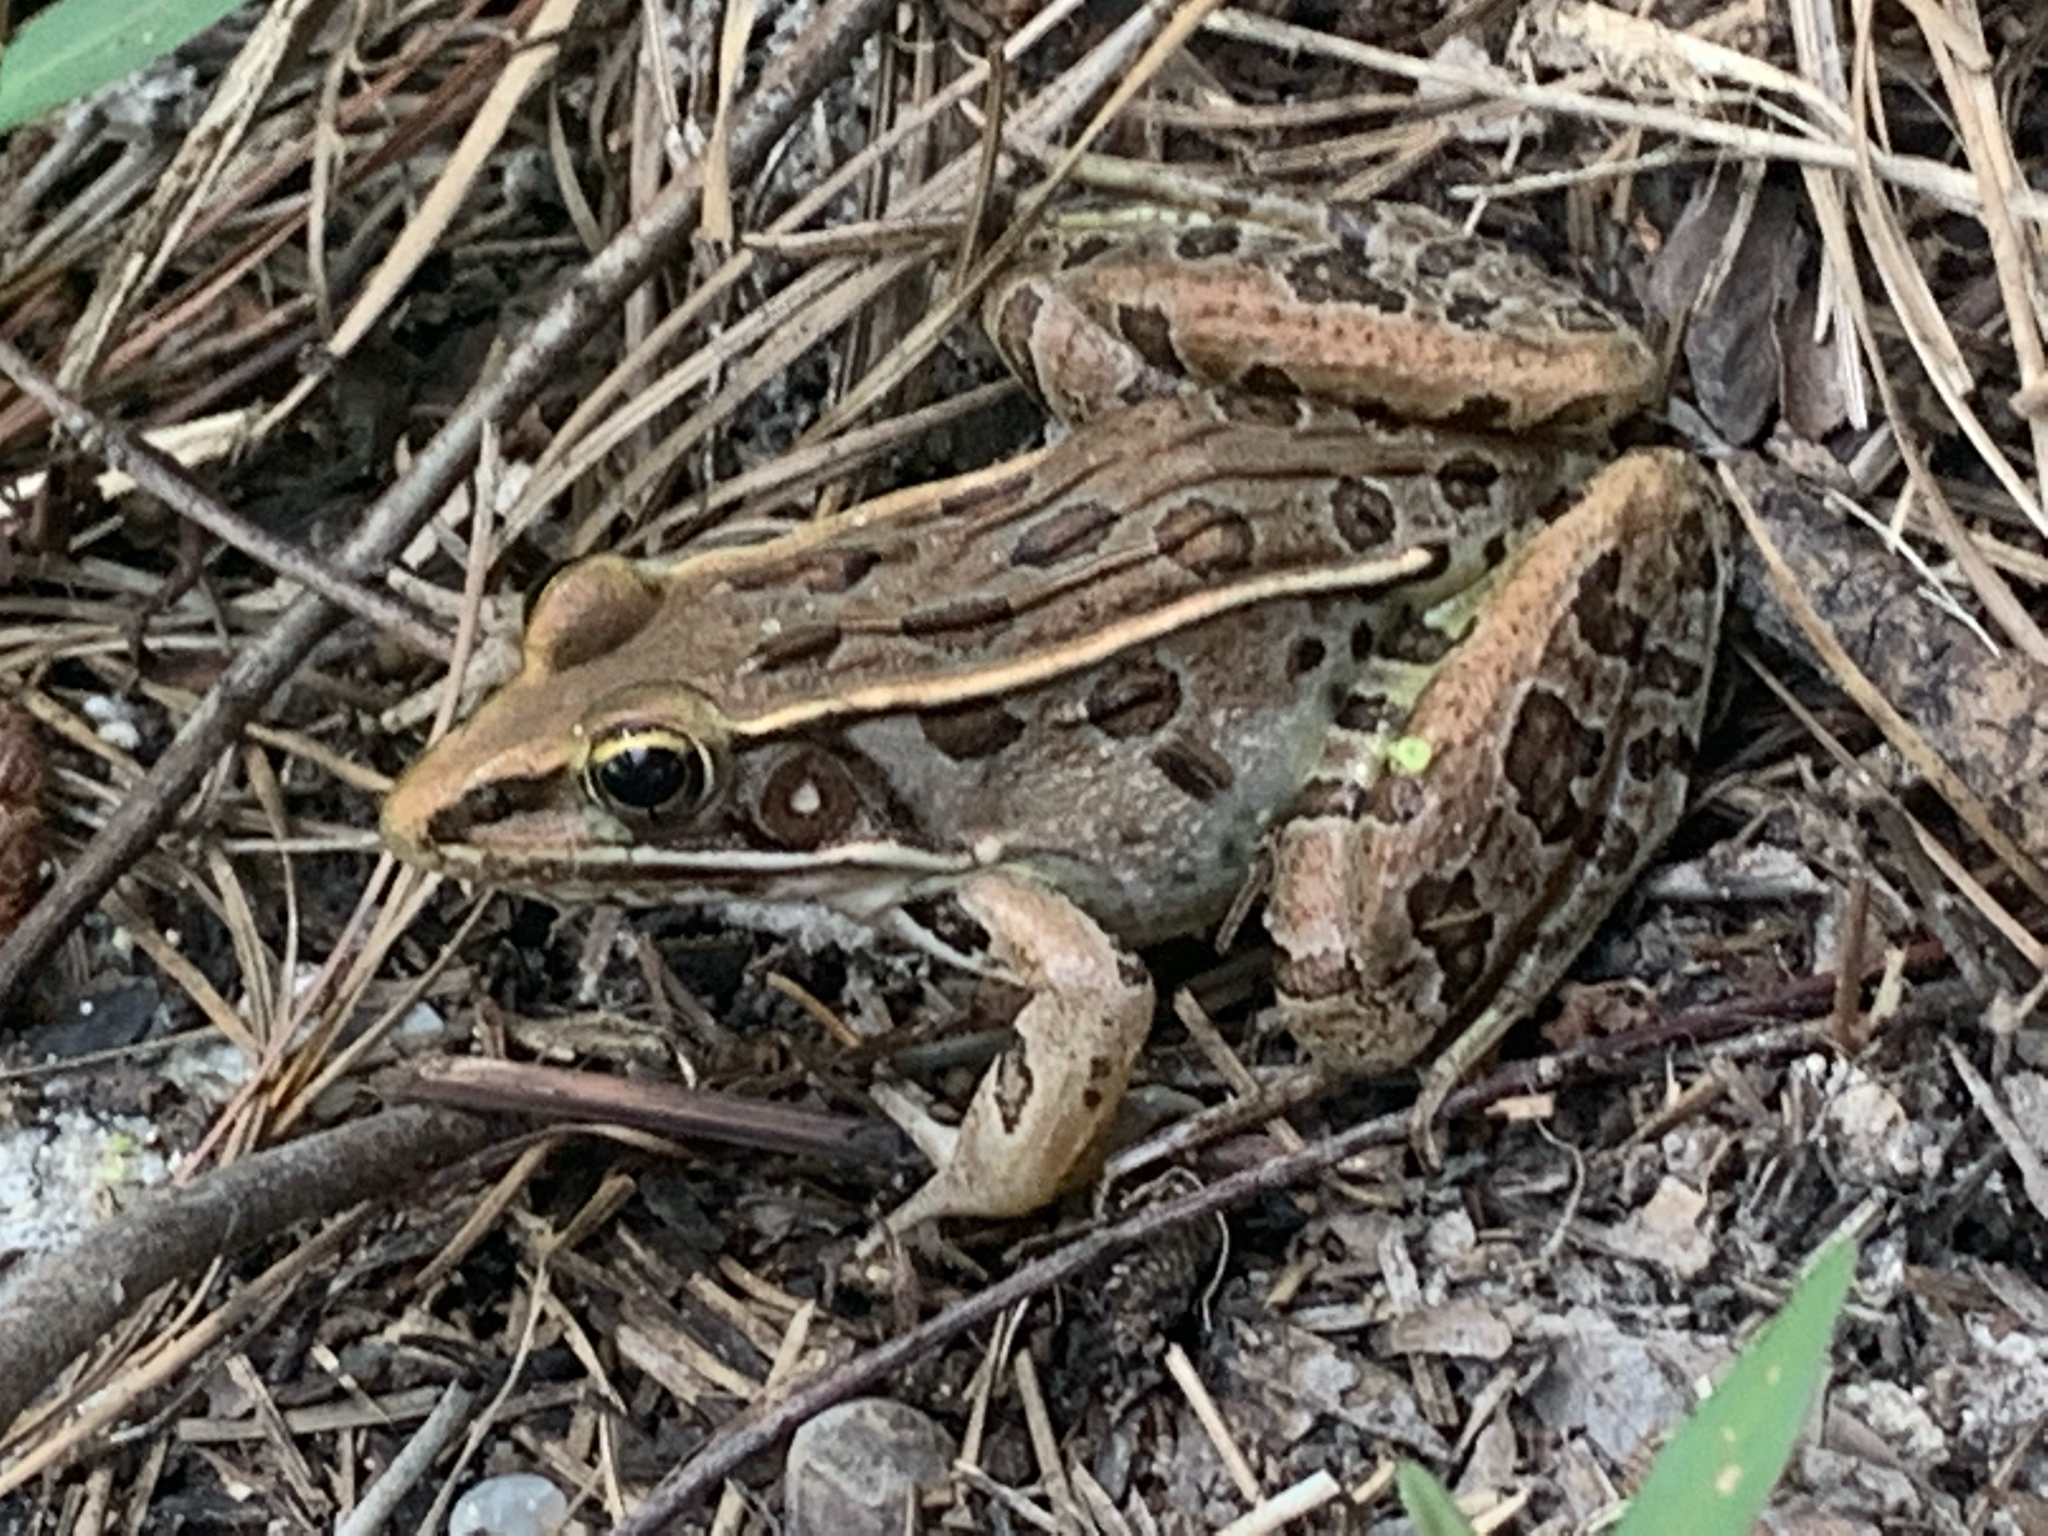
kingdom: Animalia
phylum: Chordata
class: Amphibia
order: Anura
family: Ranidae
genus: Lithobates
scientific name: Lithobates sphenocephalus
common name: Southern leopard frog
